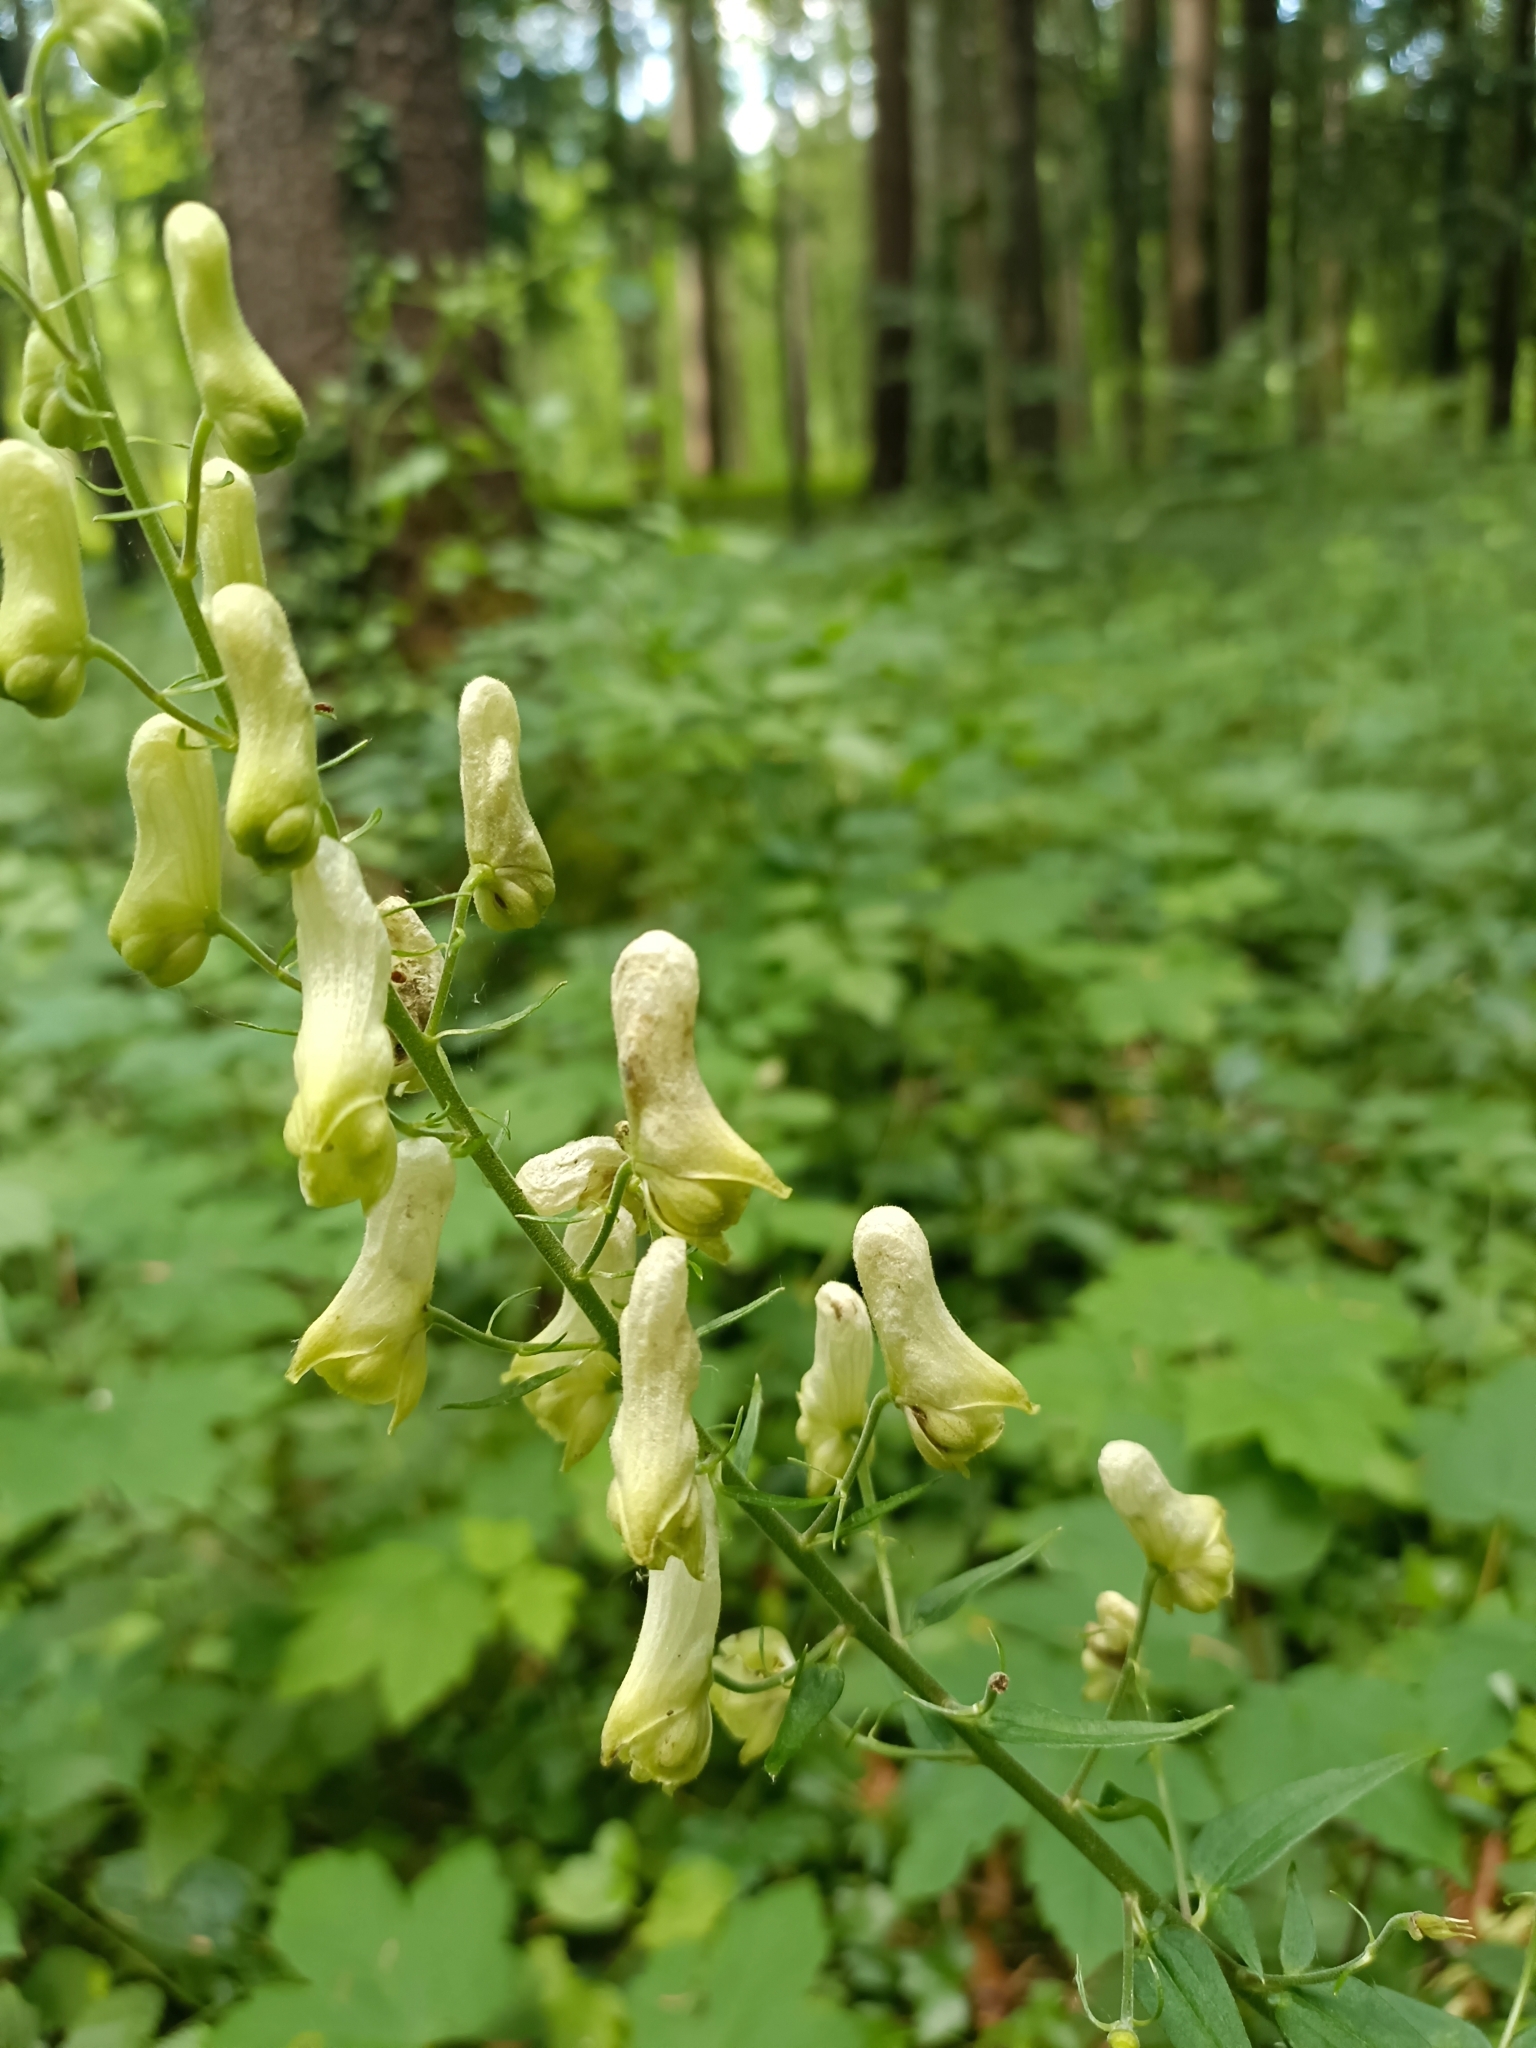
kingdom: Plantae
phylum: Tracheophyta
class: Magnoliopsida
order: Ranunculales
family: Ranunculaceae
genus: Aconitum
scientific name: Aconitum lycoctonum
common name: Wolf's-bane
